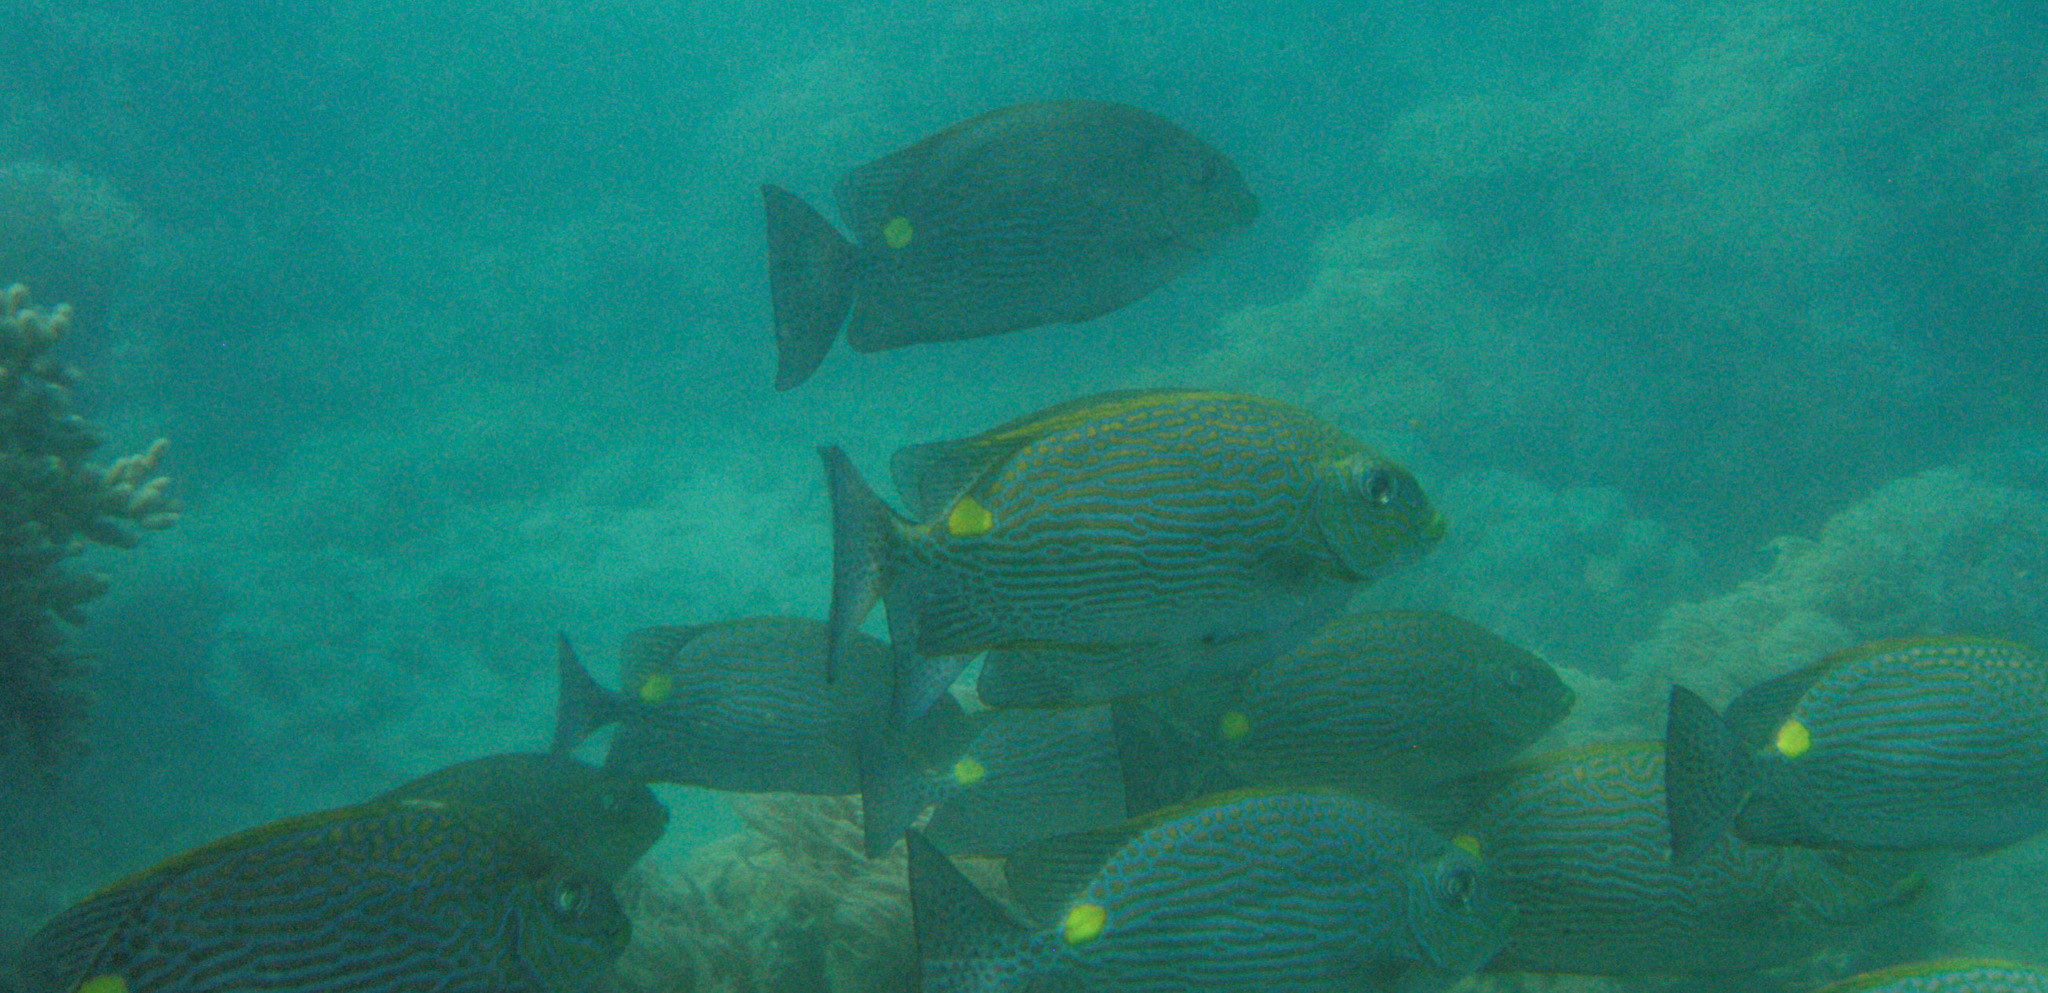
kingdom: Animalia
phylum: Chordata
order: Perciformes
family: Siganidae
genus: Siganus
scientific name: Siganus lineatus
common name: Lined rabbitfish
